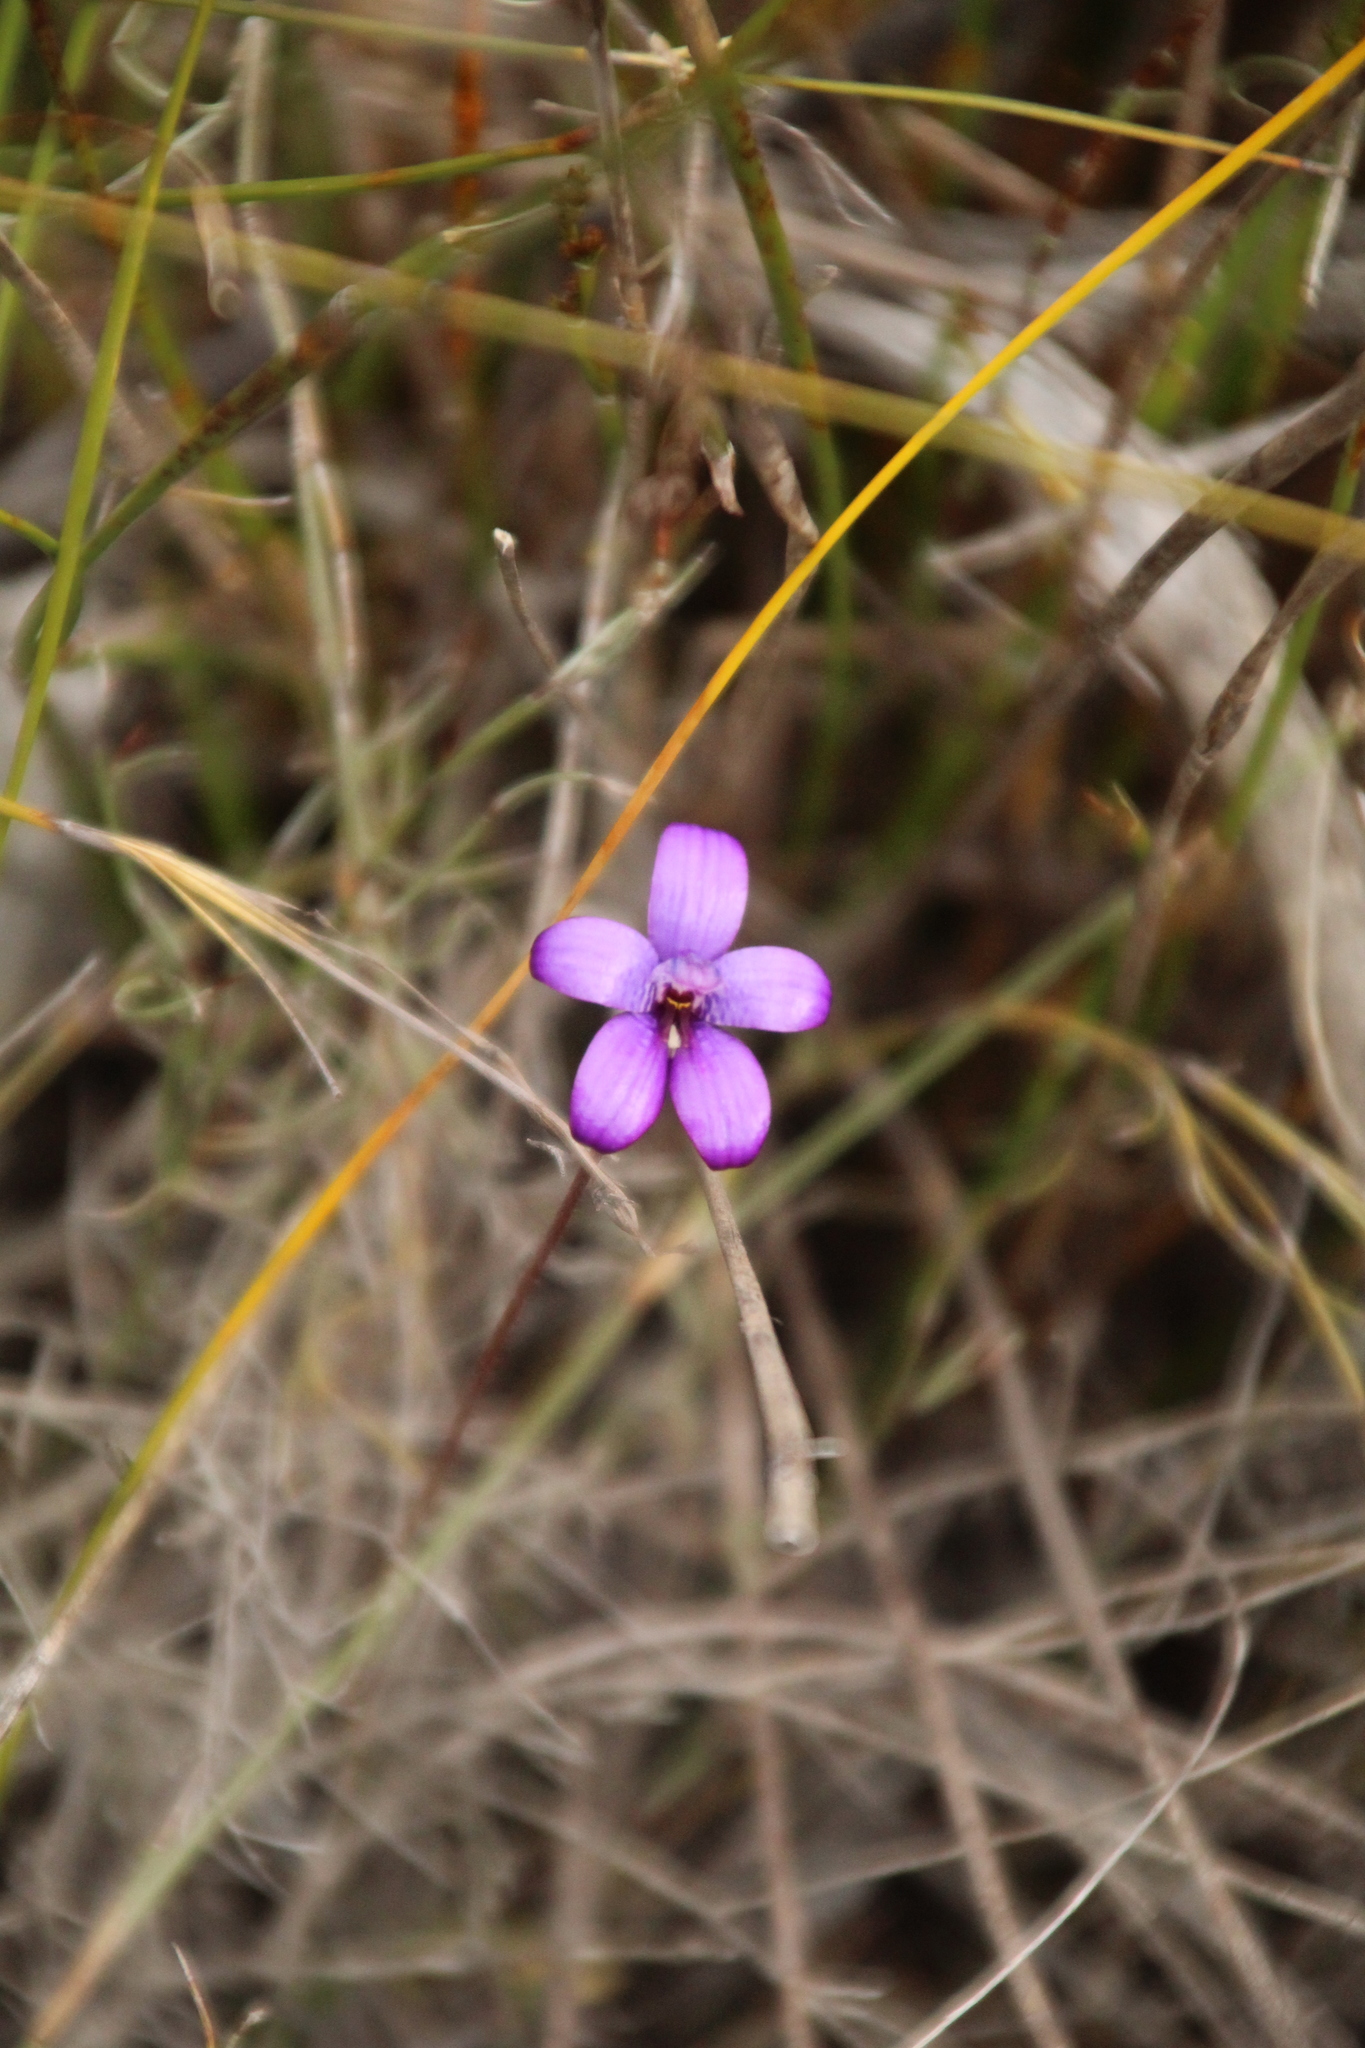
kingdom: Plantae
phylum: Tracheophyta
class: Liliopsida
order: Asparagales
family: Orchidaceae
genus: Caladenia
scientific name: Caladenia brunonis
